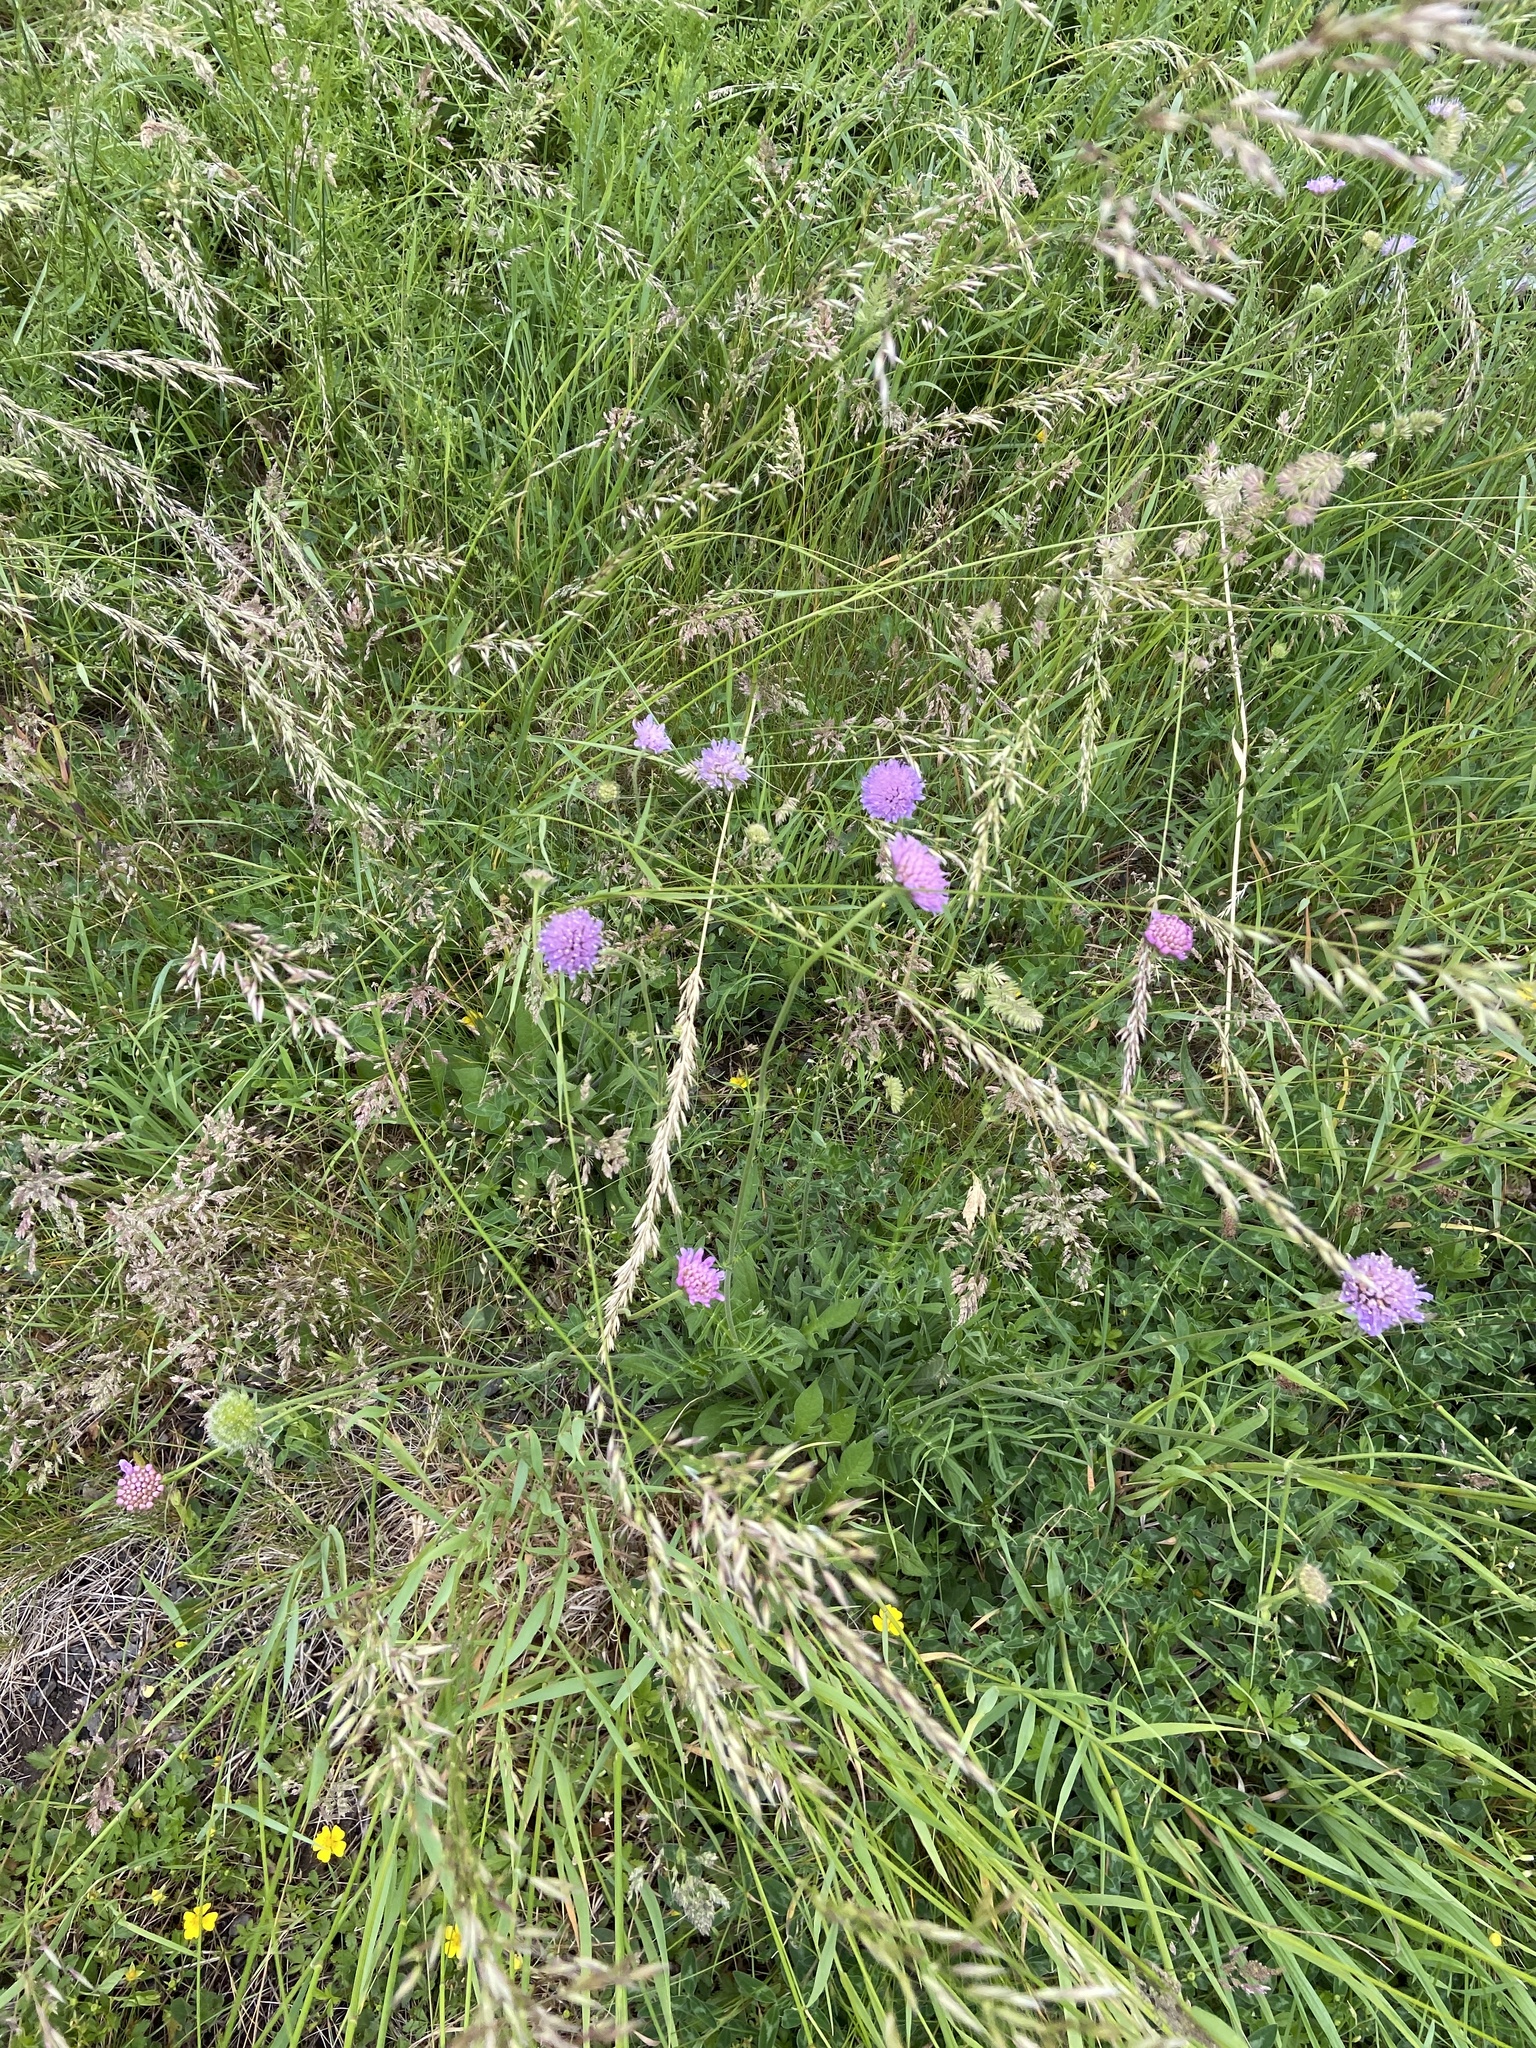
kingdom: Plantae
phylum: Tracheophyta
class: Magnoliopsida
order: Dipsacales
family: Caprifoliaceae
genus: Knautia
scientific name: Knautia arvensis
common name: Field scabiosa
